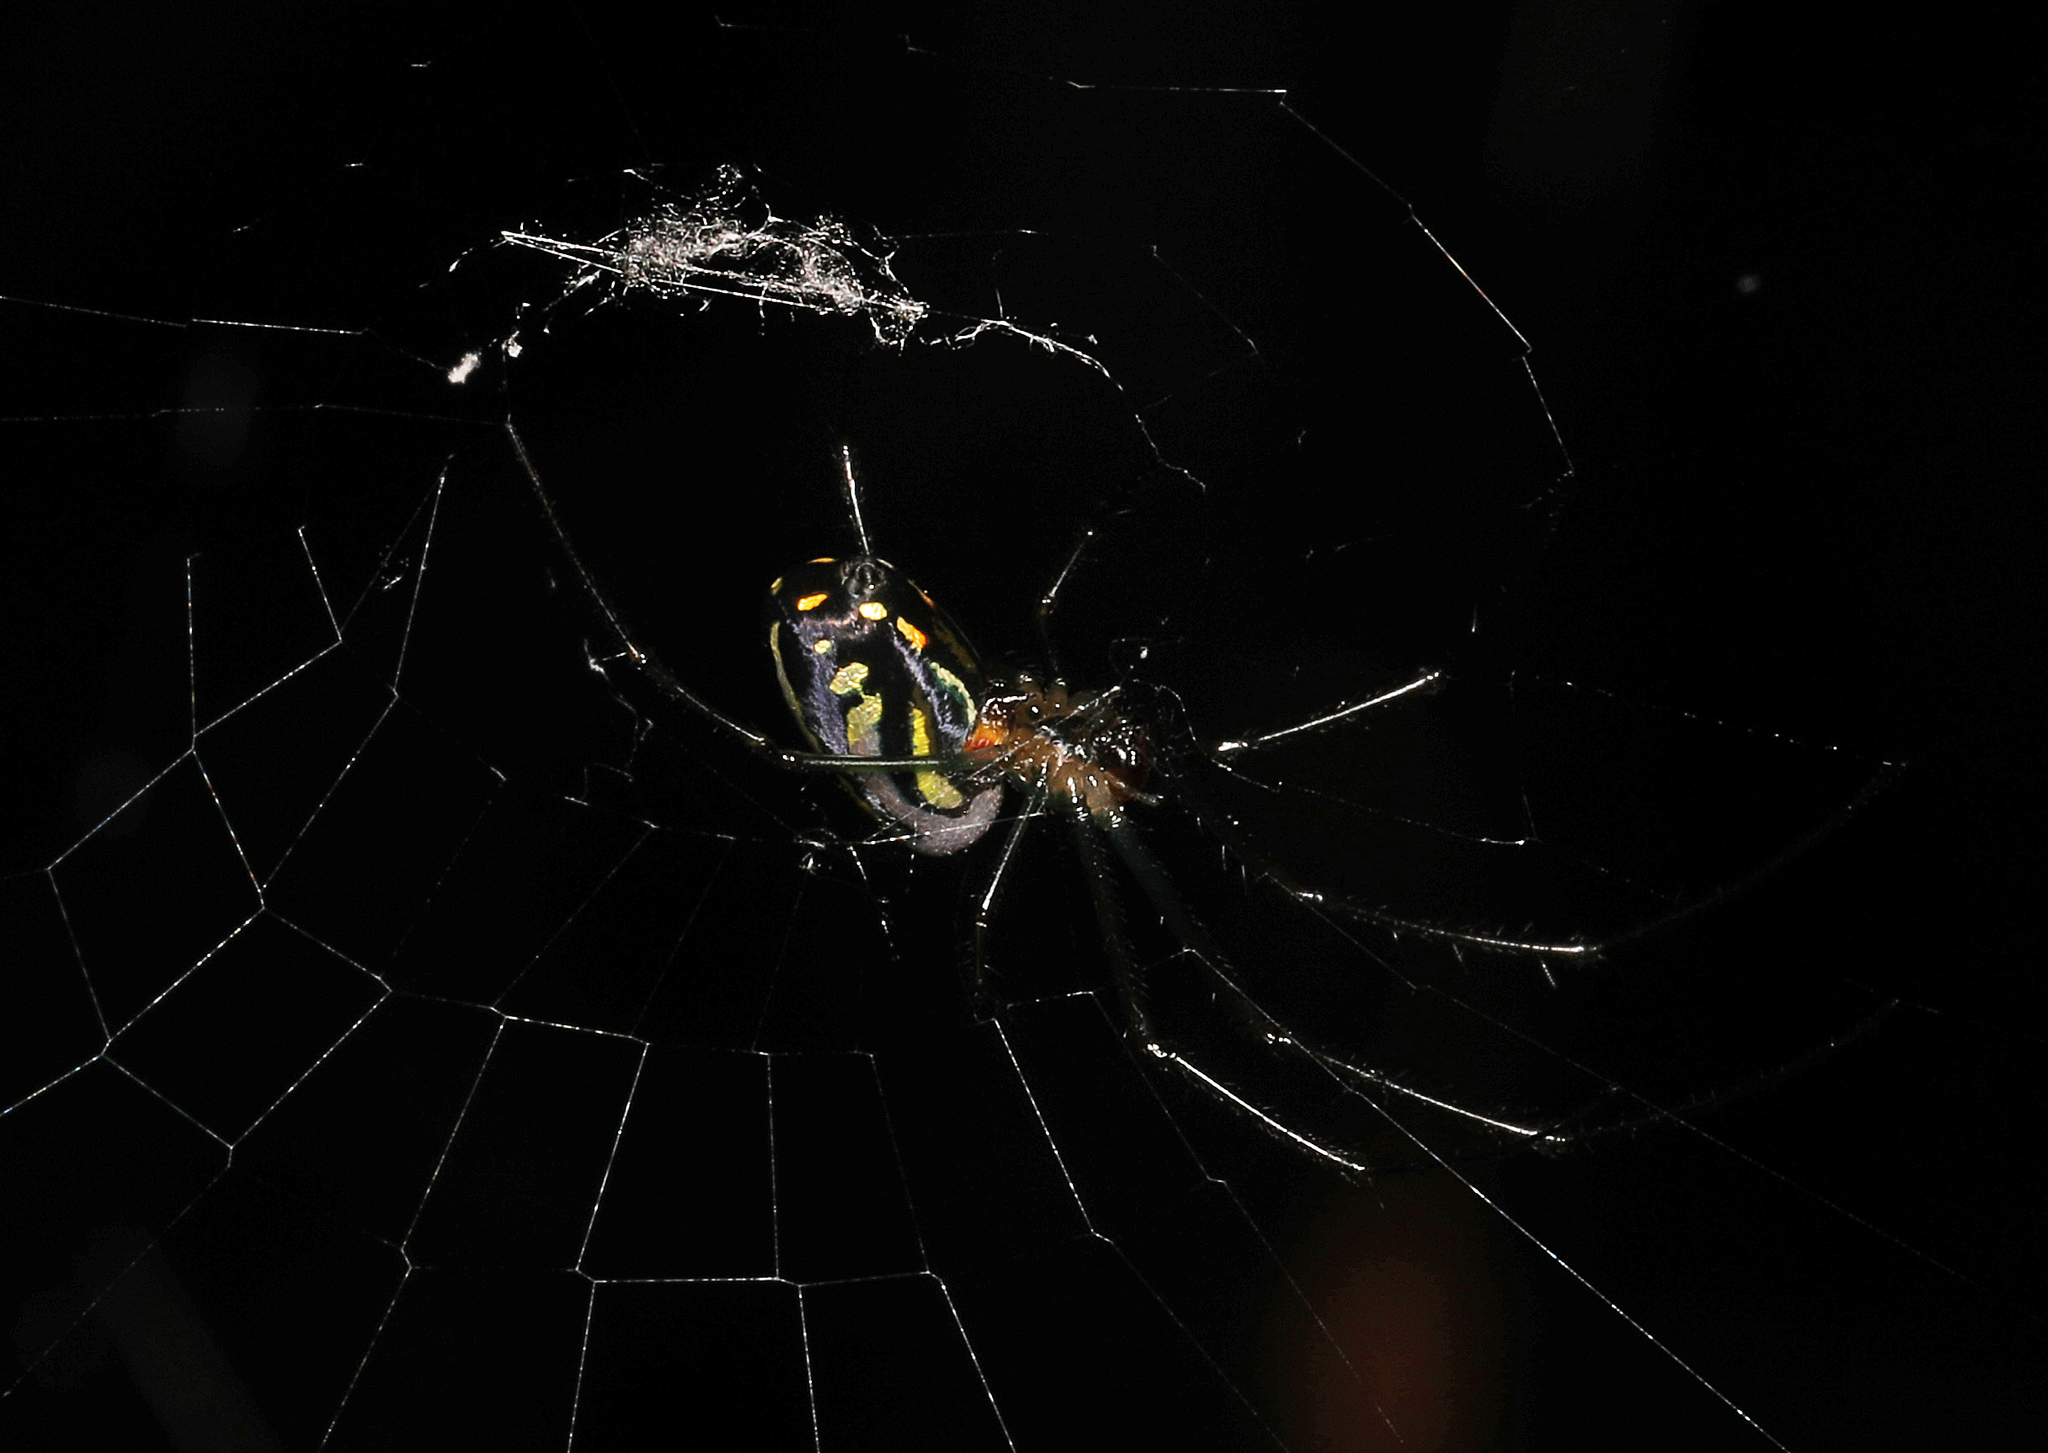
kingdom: Animalia
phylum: Arthropoda
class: Arachnida
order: Araneae
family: Tetragnathidae
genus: Leucauge
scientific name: Leucauge argyra
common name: Longjawed orb weavers
